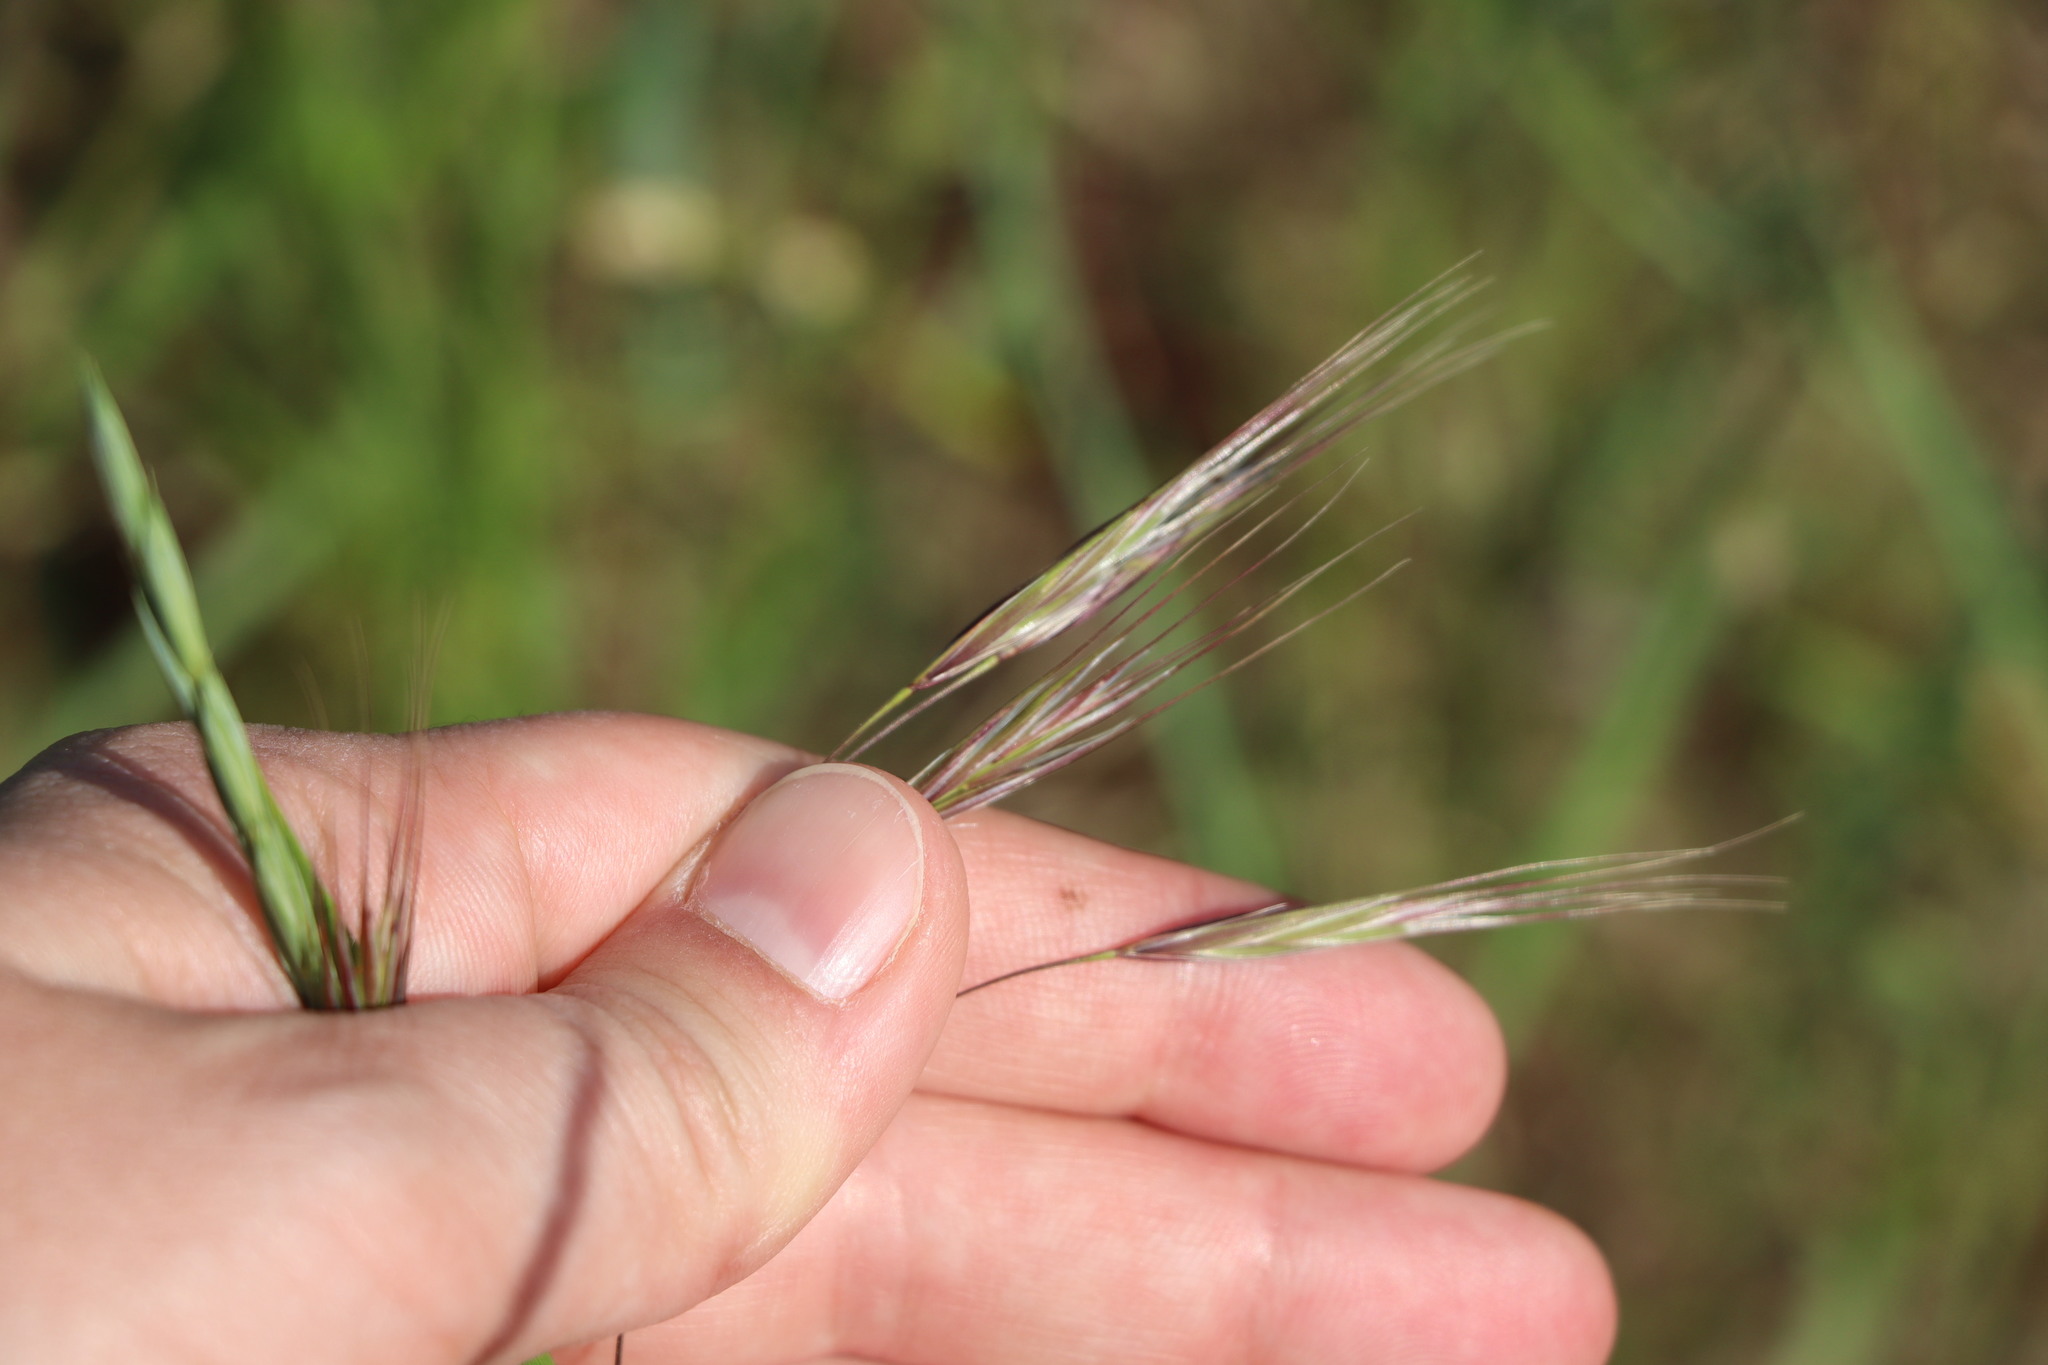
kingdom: Plantae
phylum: Tracheophyta
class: Liliopsida
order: Poales
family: Poaceae
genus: Bromus
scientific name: Bromus sterilis
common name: Poverty brome
